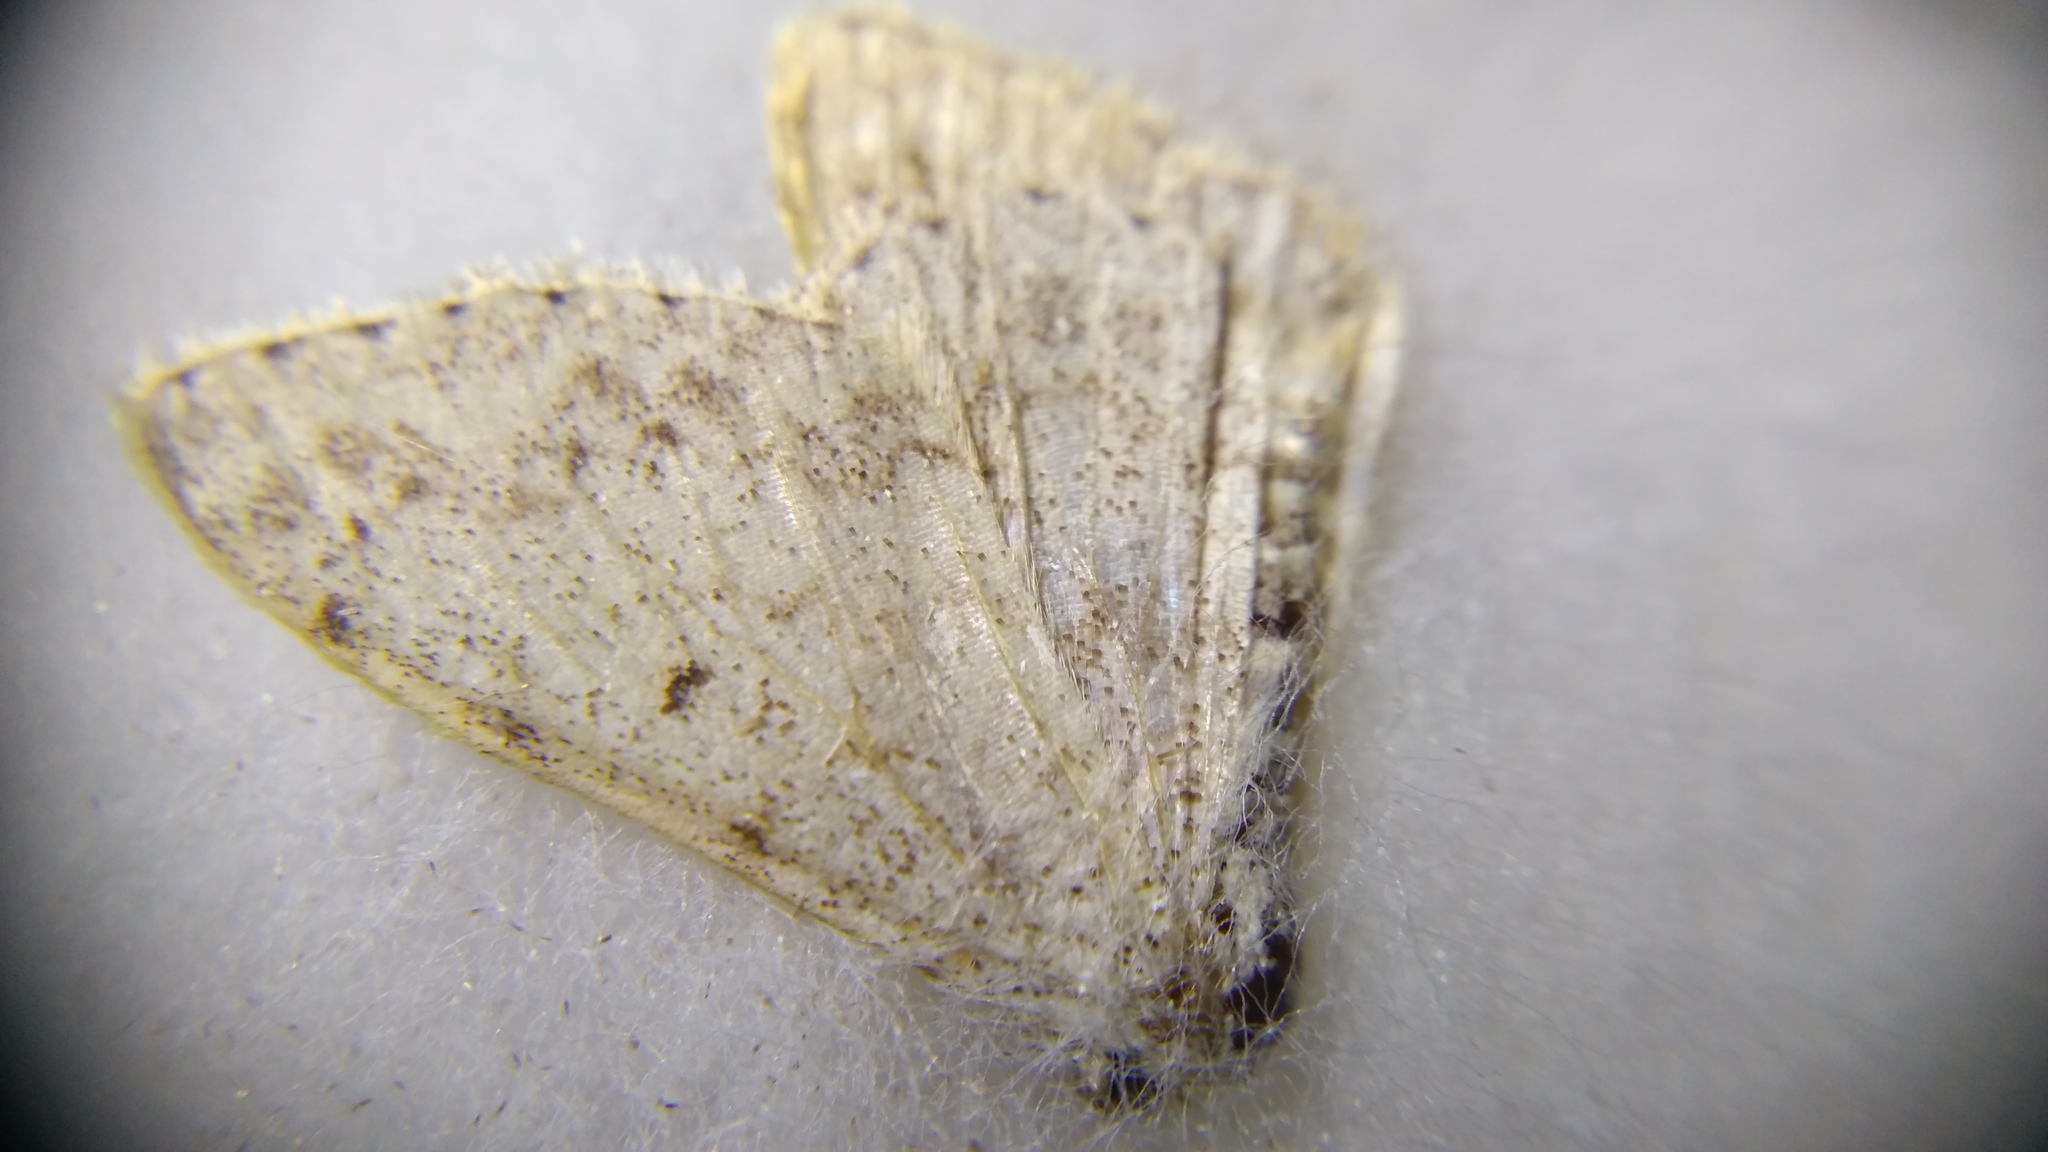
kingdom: Animalia
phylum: Arthropoda
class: Insecta
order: Lepidoptera
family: Geometridae
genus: Scopula
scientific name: Scopula marginepunctata
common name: Mullein wave
